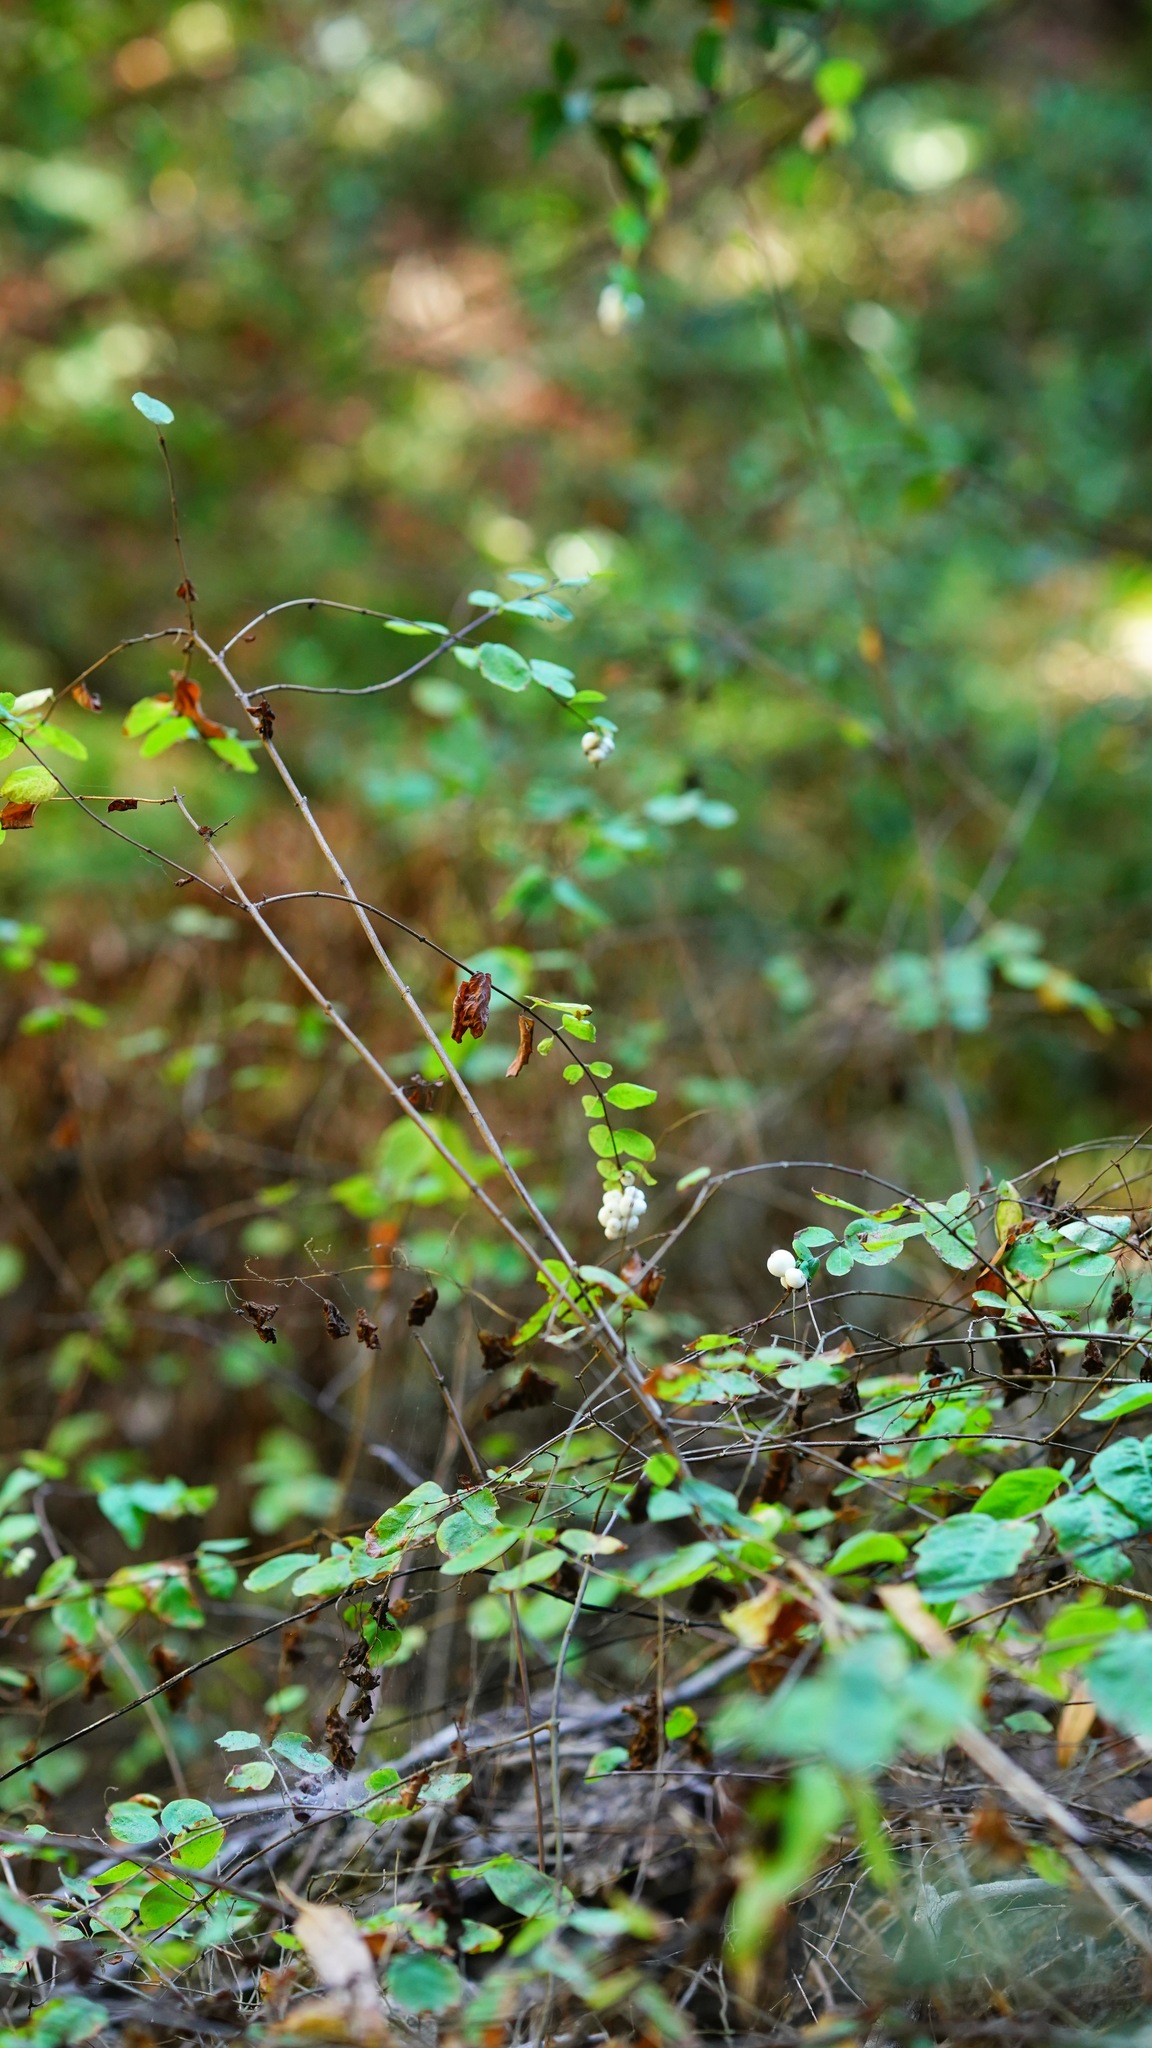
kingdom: Plantae
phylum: Tracheophyta
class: Magnoliopsida
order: Dipsacales
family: Caprifoliaceae
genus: Symphoricarpos
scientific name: Symphoricarpos albus
